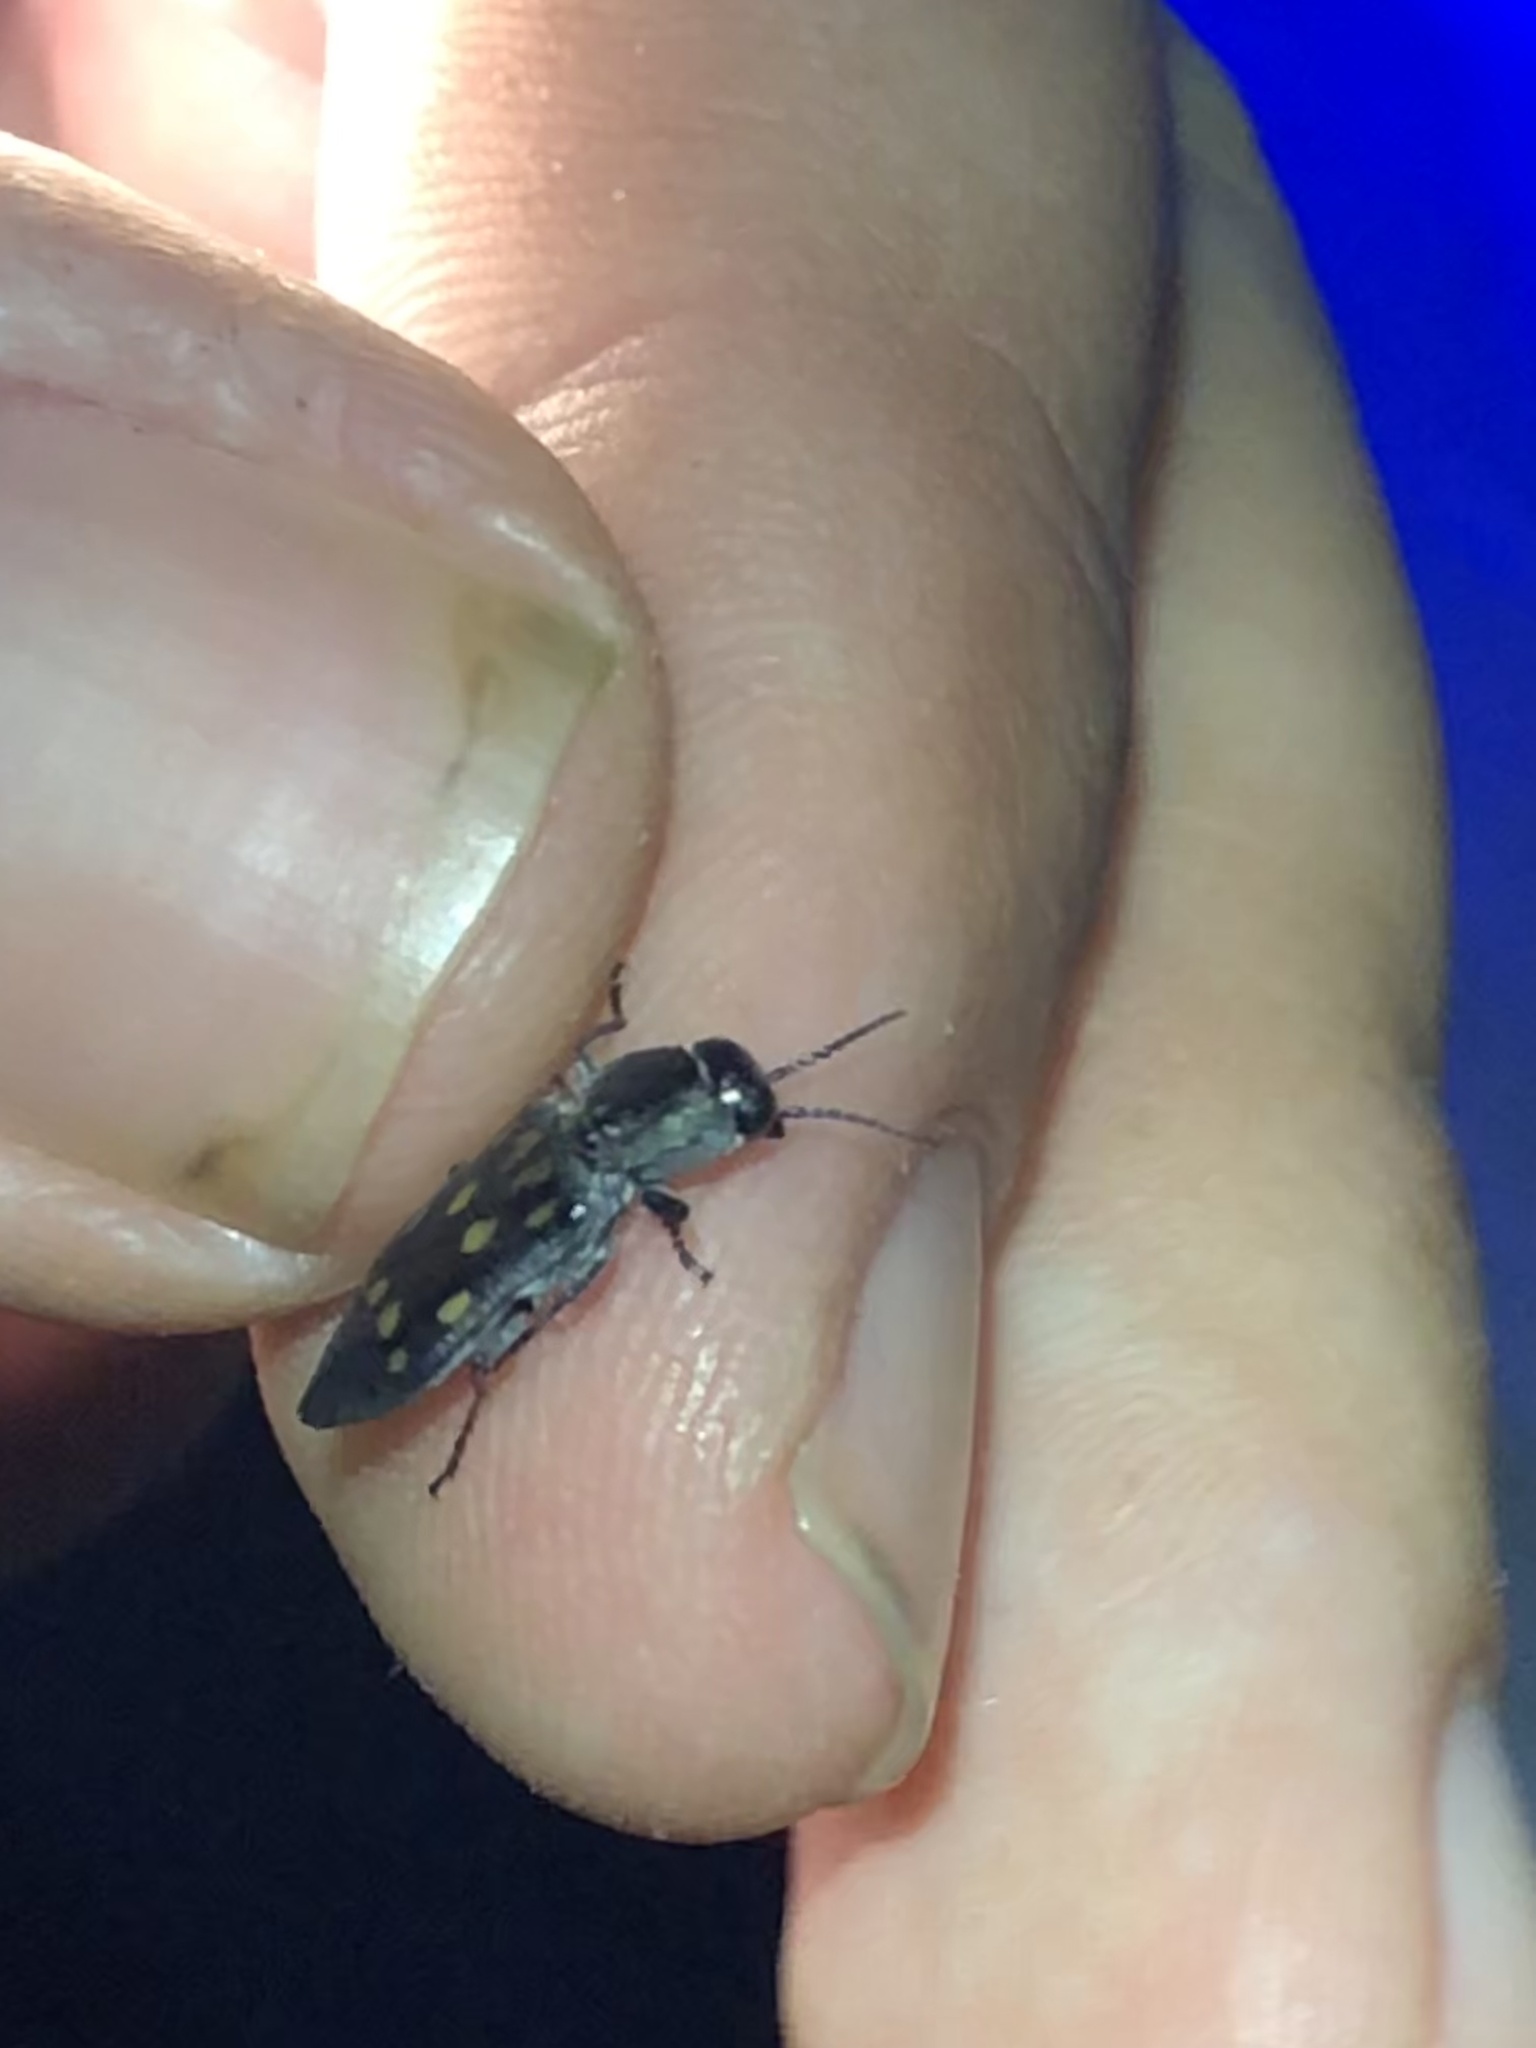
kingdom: Animalia
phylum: Arthropoda
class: Insecta
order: Coleoptera
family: Buprestidae
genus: Melanophila
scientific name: Melanophila consputa
